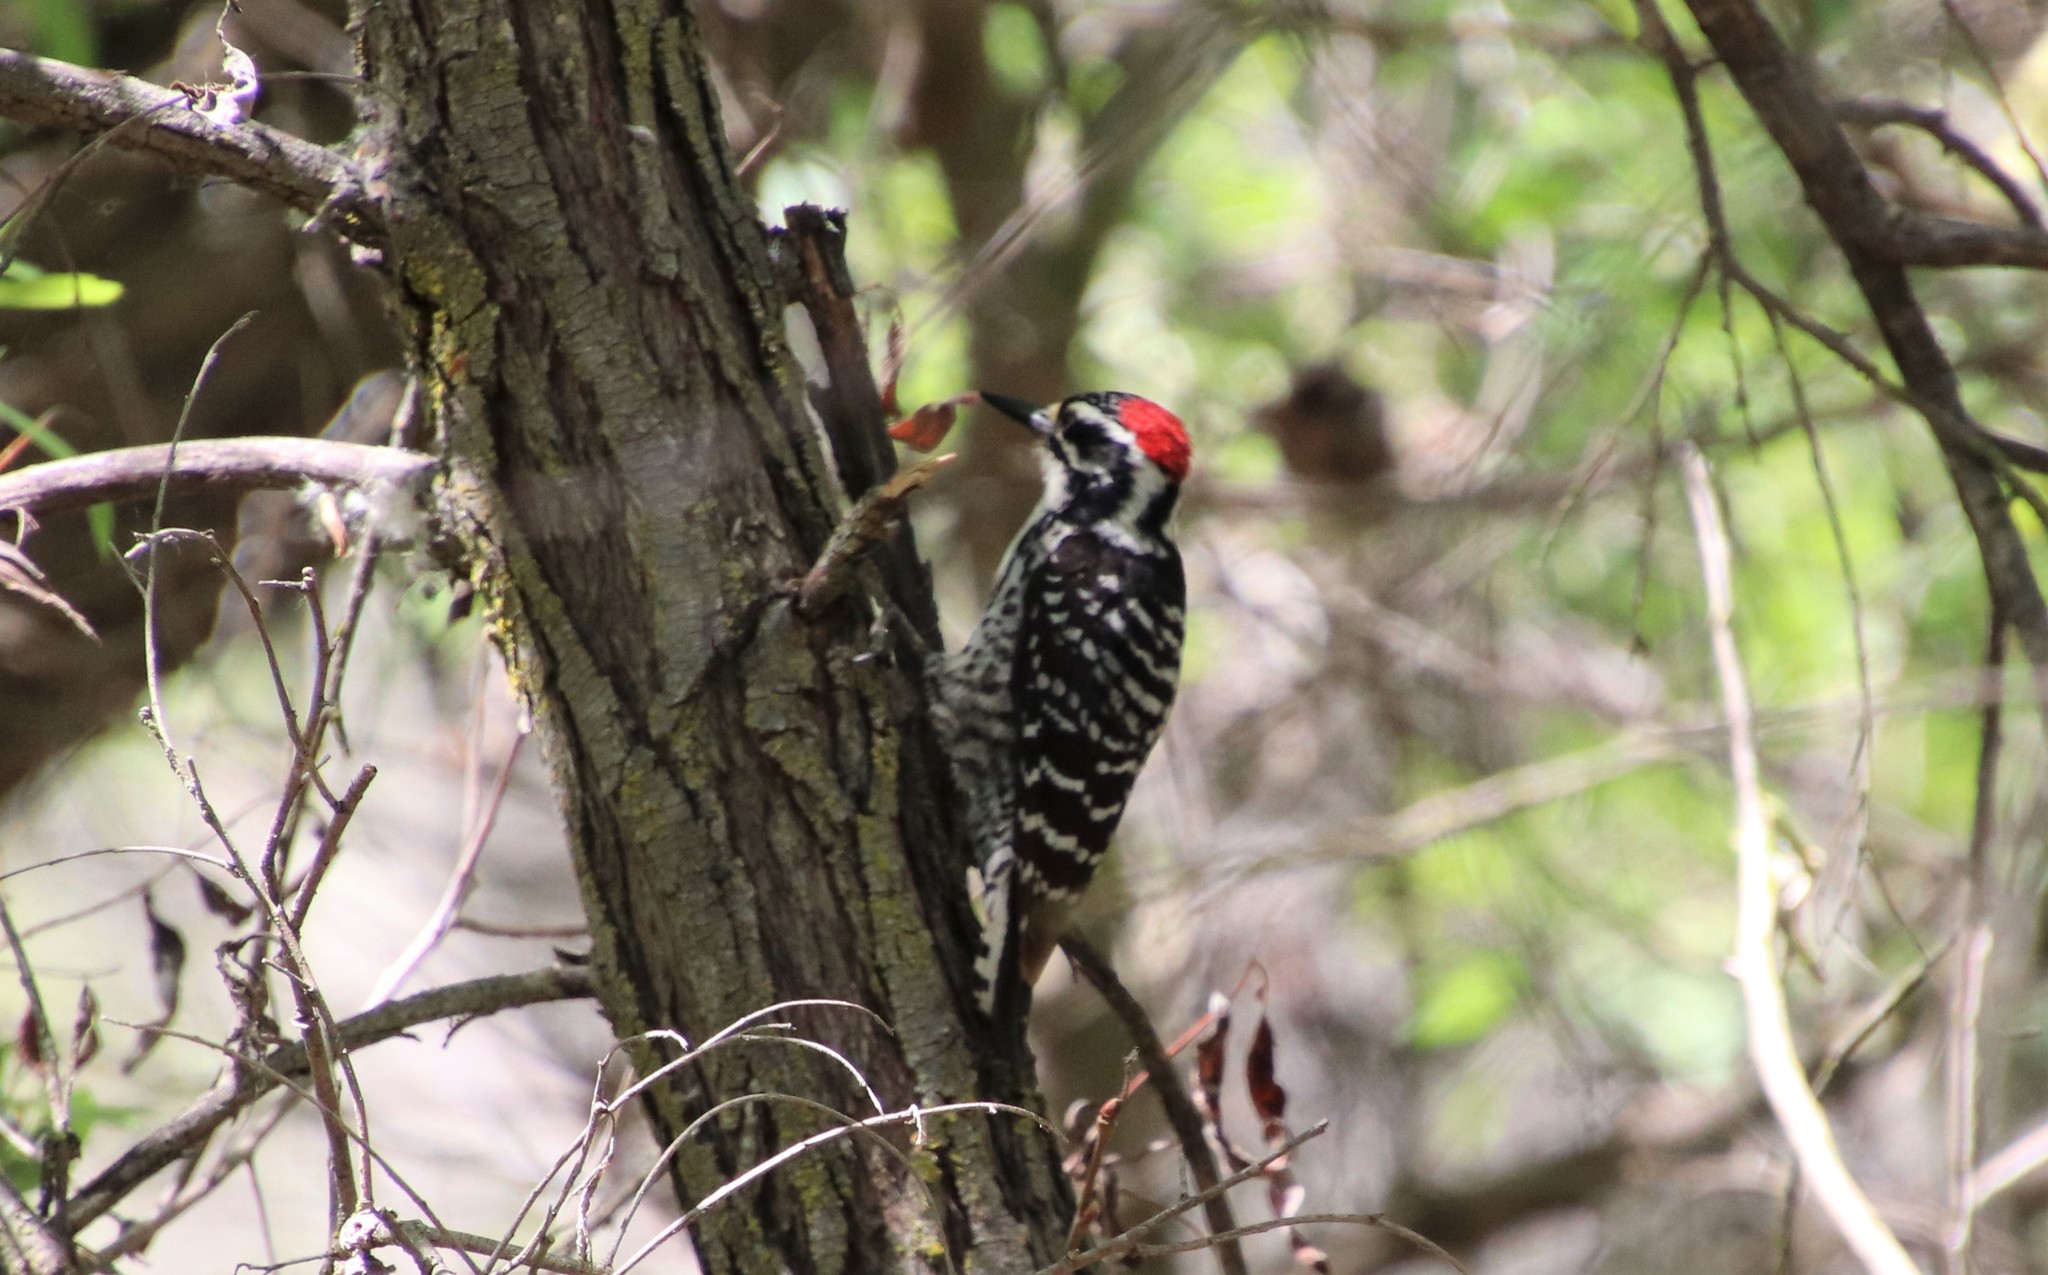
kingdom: Animalia
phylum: Chordata
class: Aves
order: Piciformes
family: Picidae
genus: Dryobates
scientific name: Dryobates nuttallii
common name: Nuttall's woodpecker
